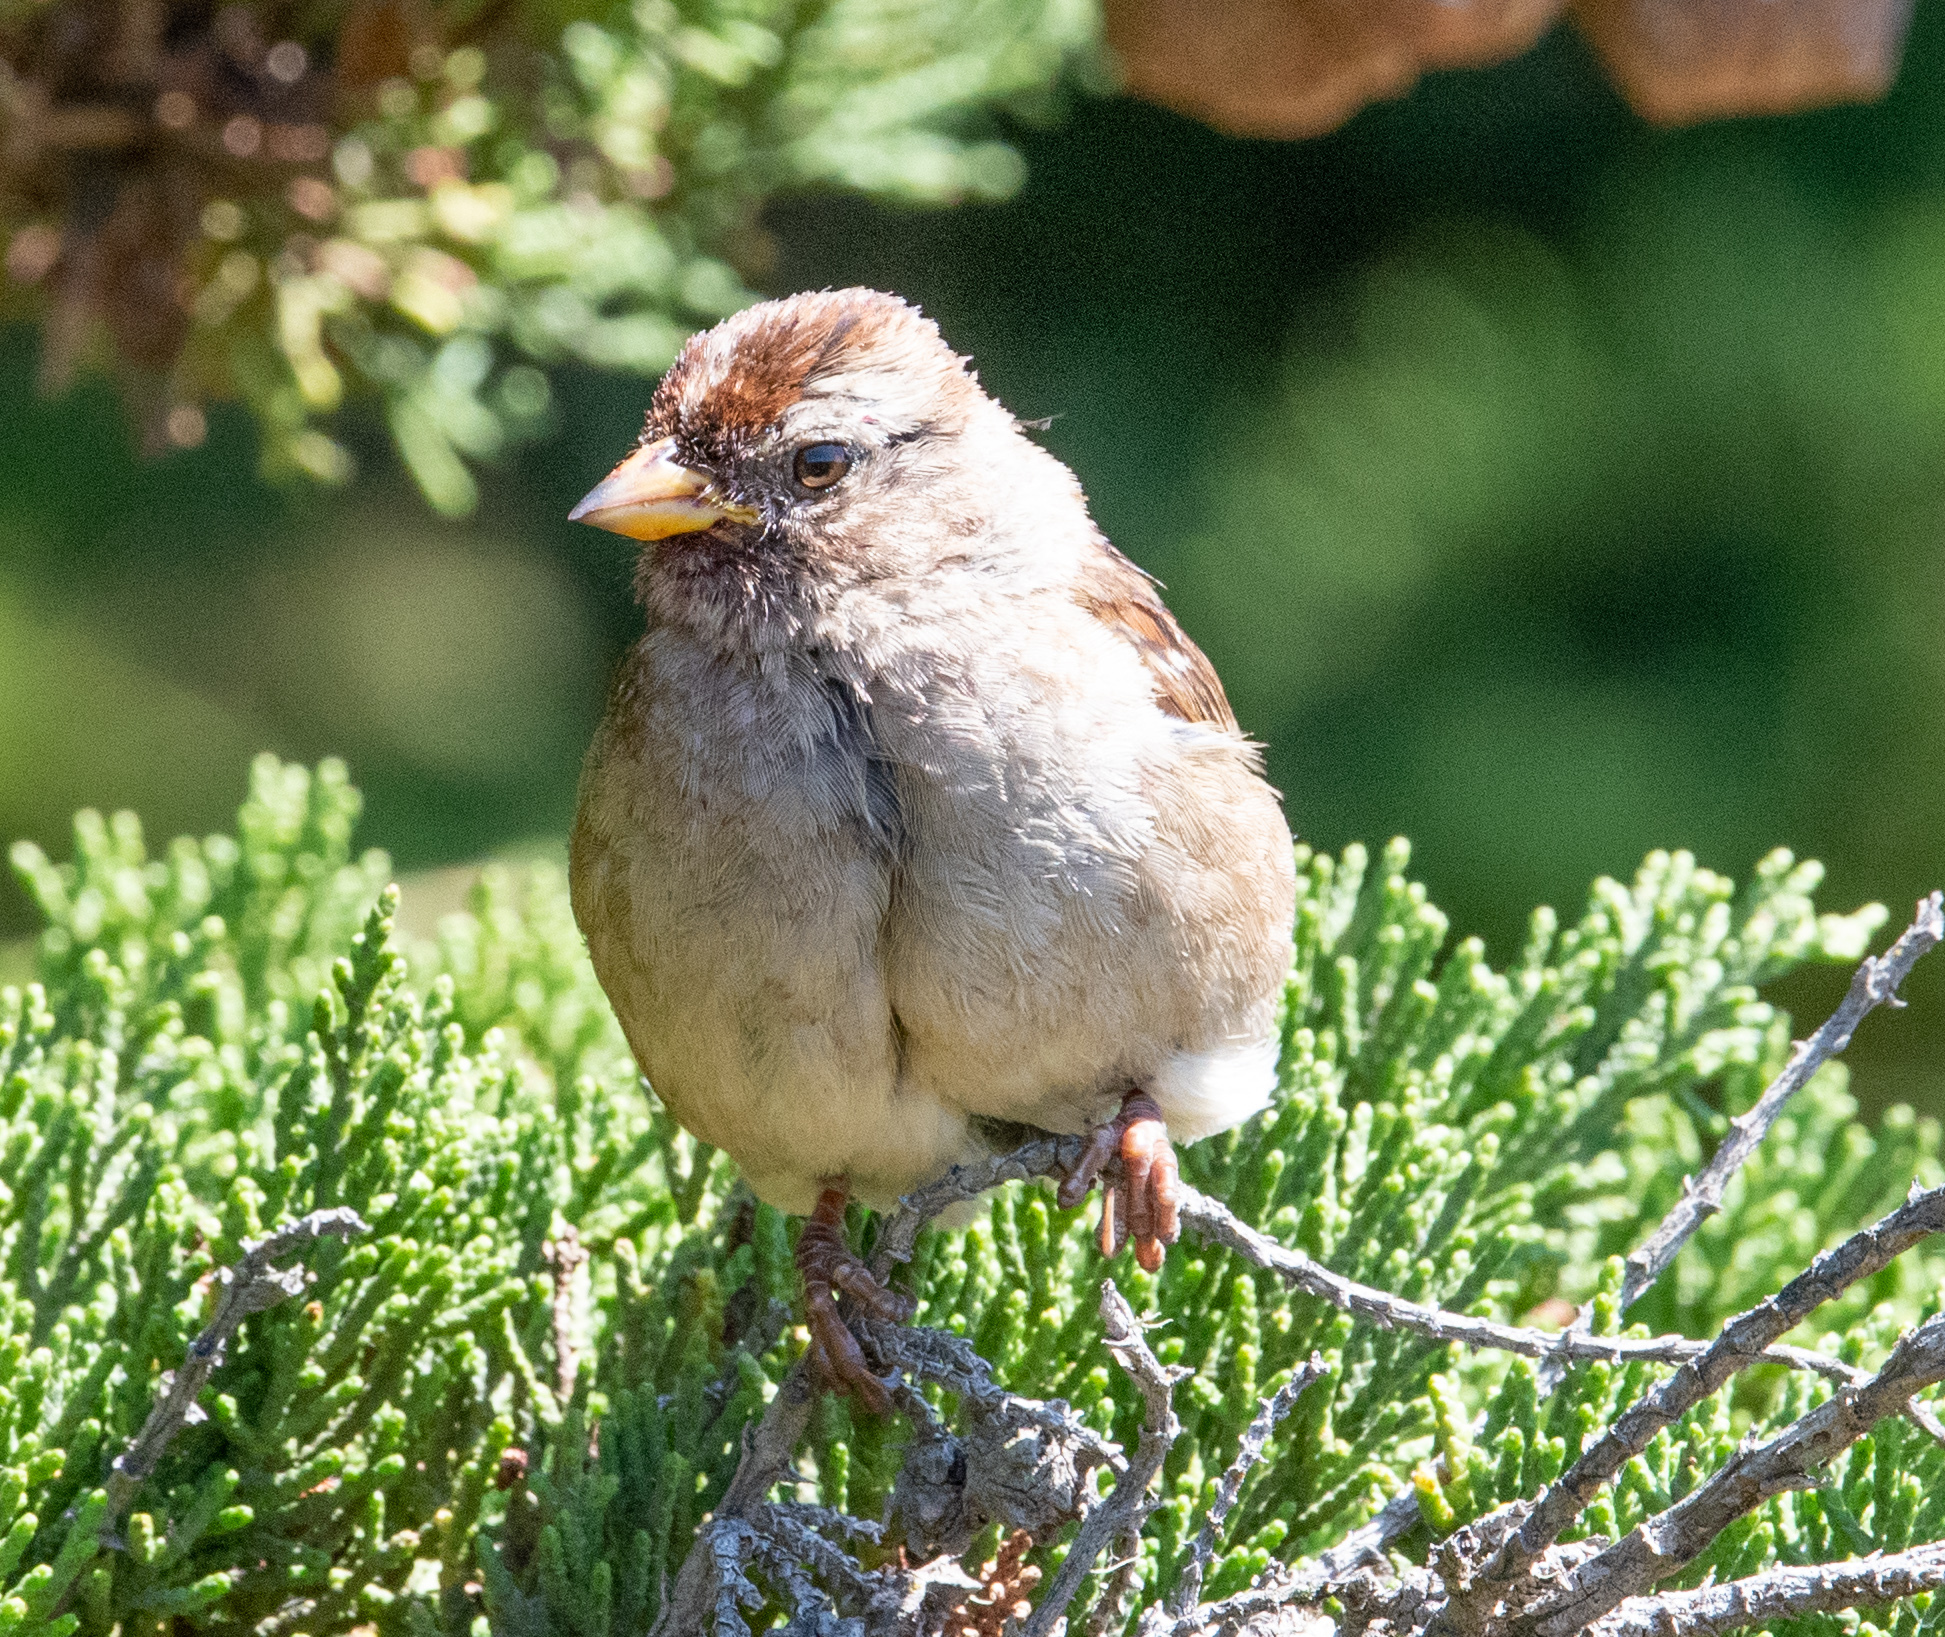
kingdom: Animalia
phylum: Chordata
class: Aves
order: Passeriformes
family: Passerellidae
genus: Zonotrichia
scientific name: Zonotrichia leucophrys
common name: White-crowned sparrow
